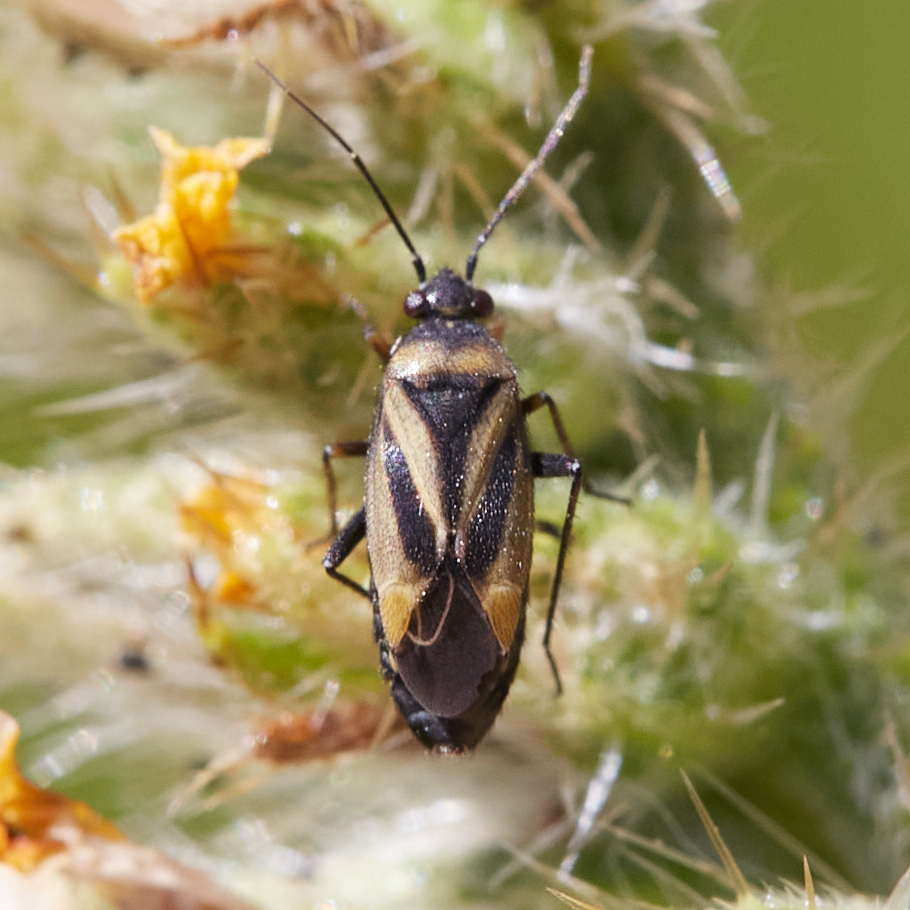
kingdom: Animalia
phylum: Arthropoda
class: Insecta
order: Hemiptera
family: Miridae
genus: Plagiognathus
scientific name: Plagiognathus moerens
